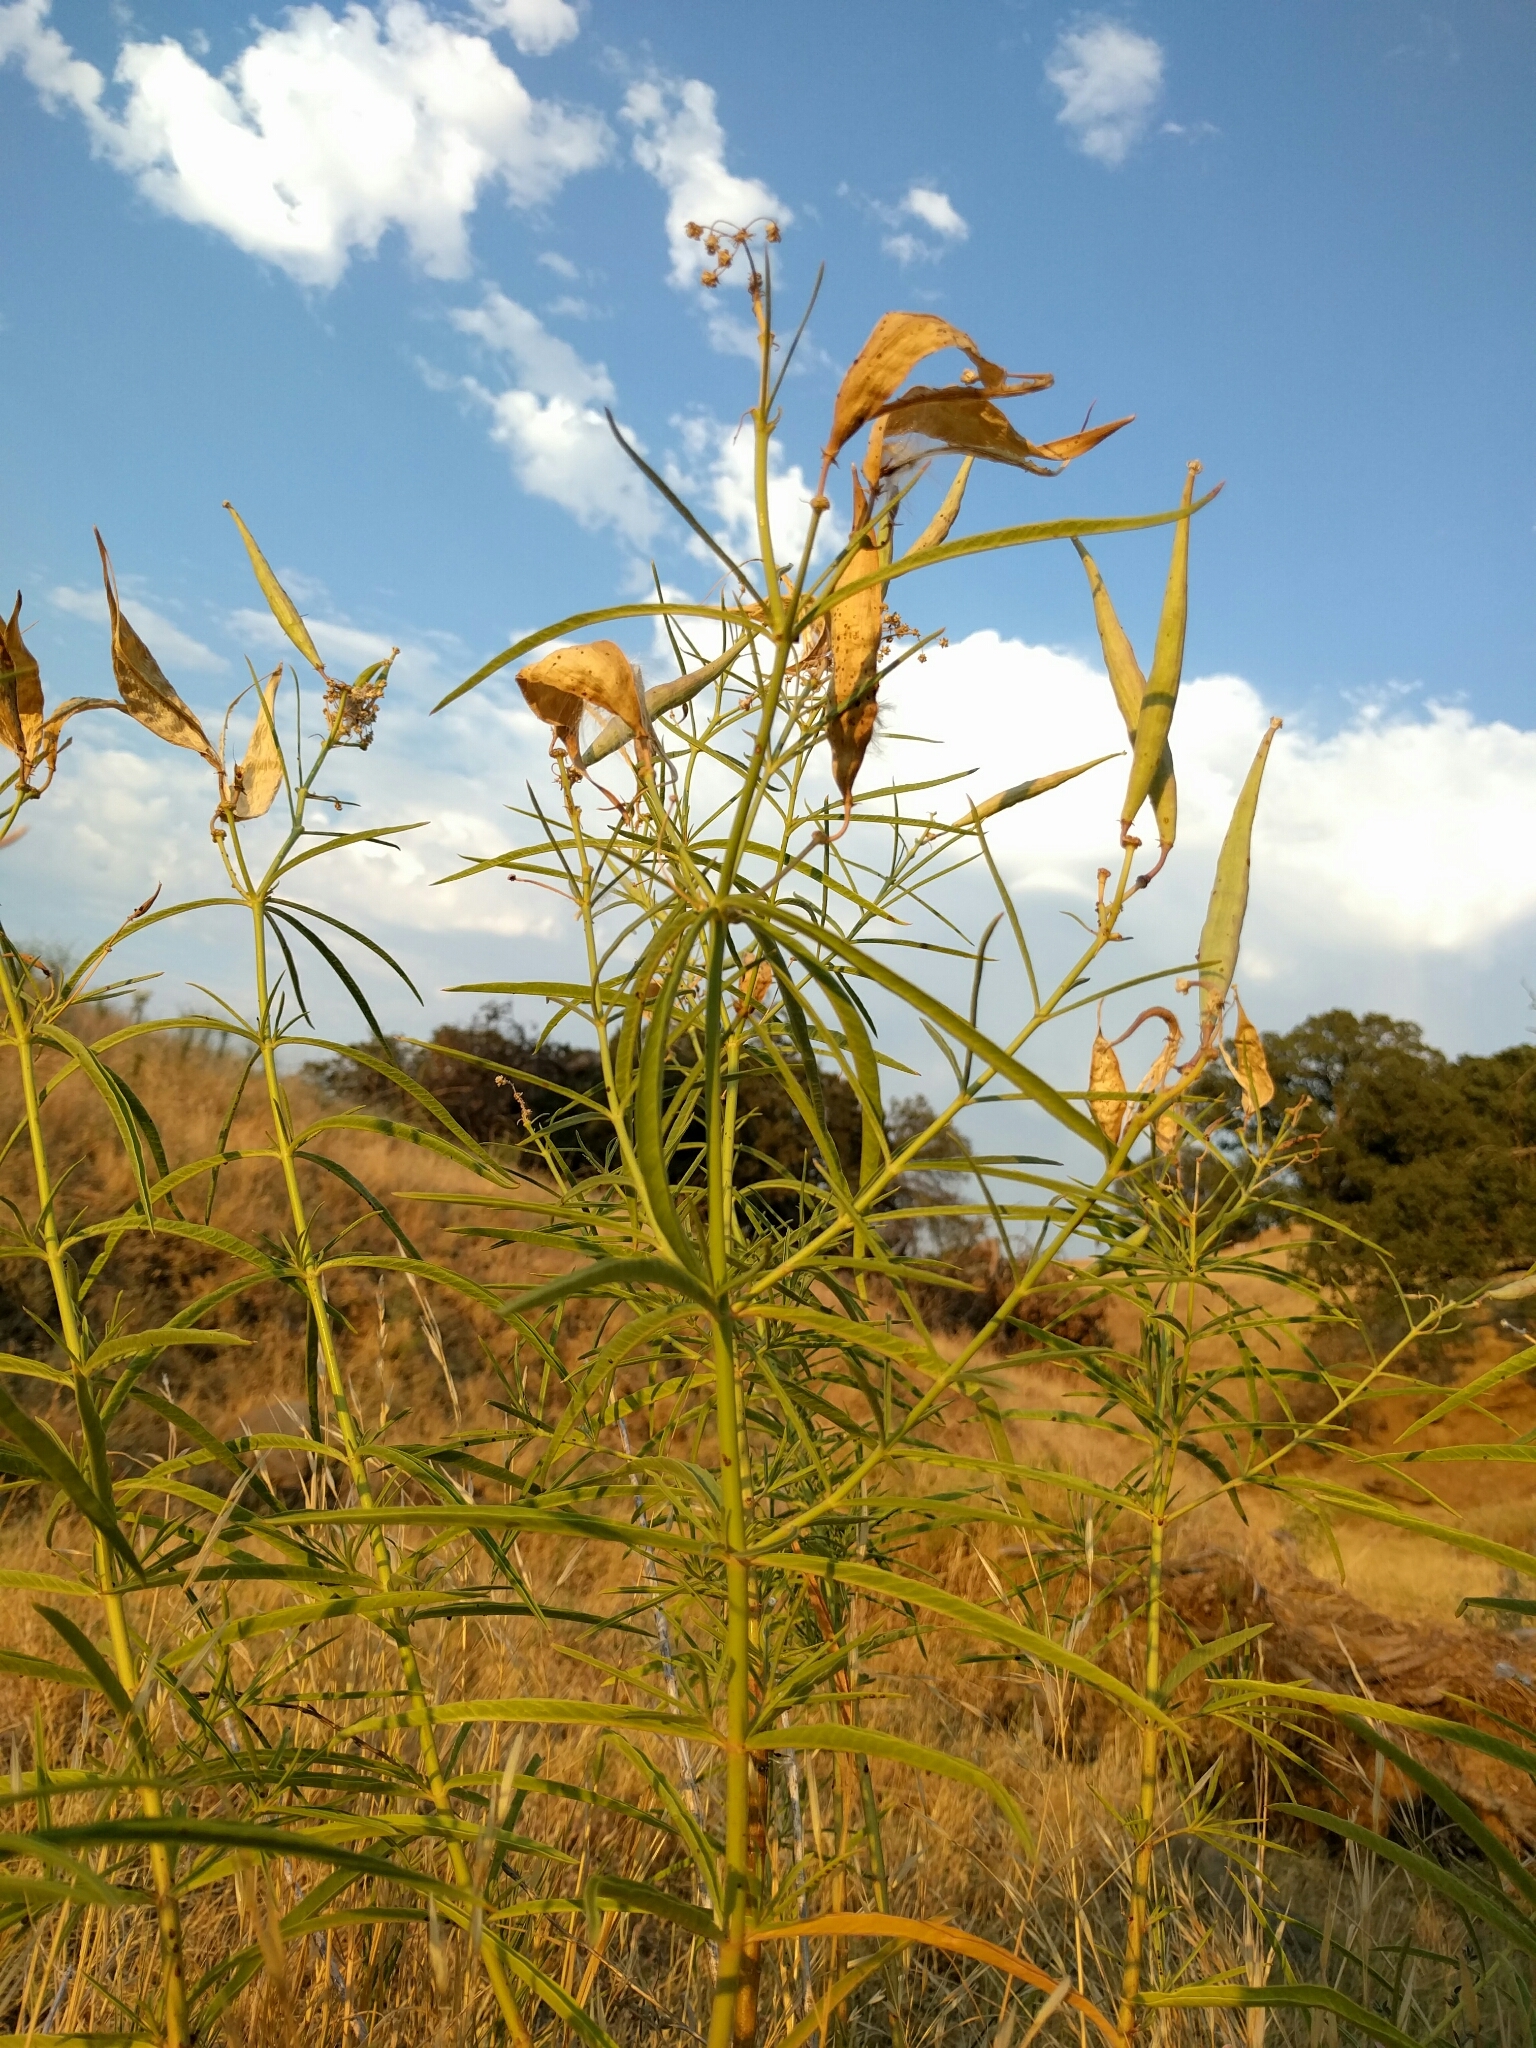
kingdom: Plantae
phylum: Tracheophyta
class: Magnoliopsida
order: Gentianales
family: Apocynaceae
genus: Asclepias
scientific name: Asclepias fascicularis
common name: Mexican milkweed
